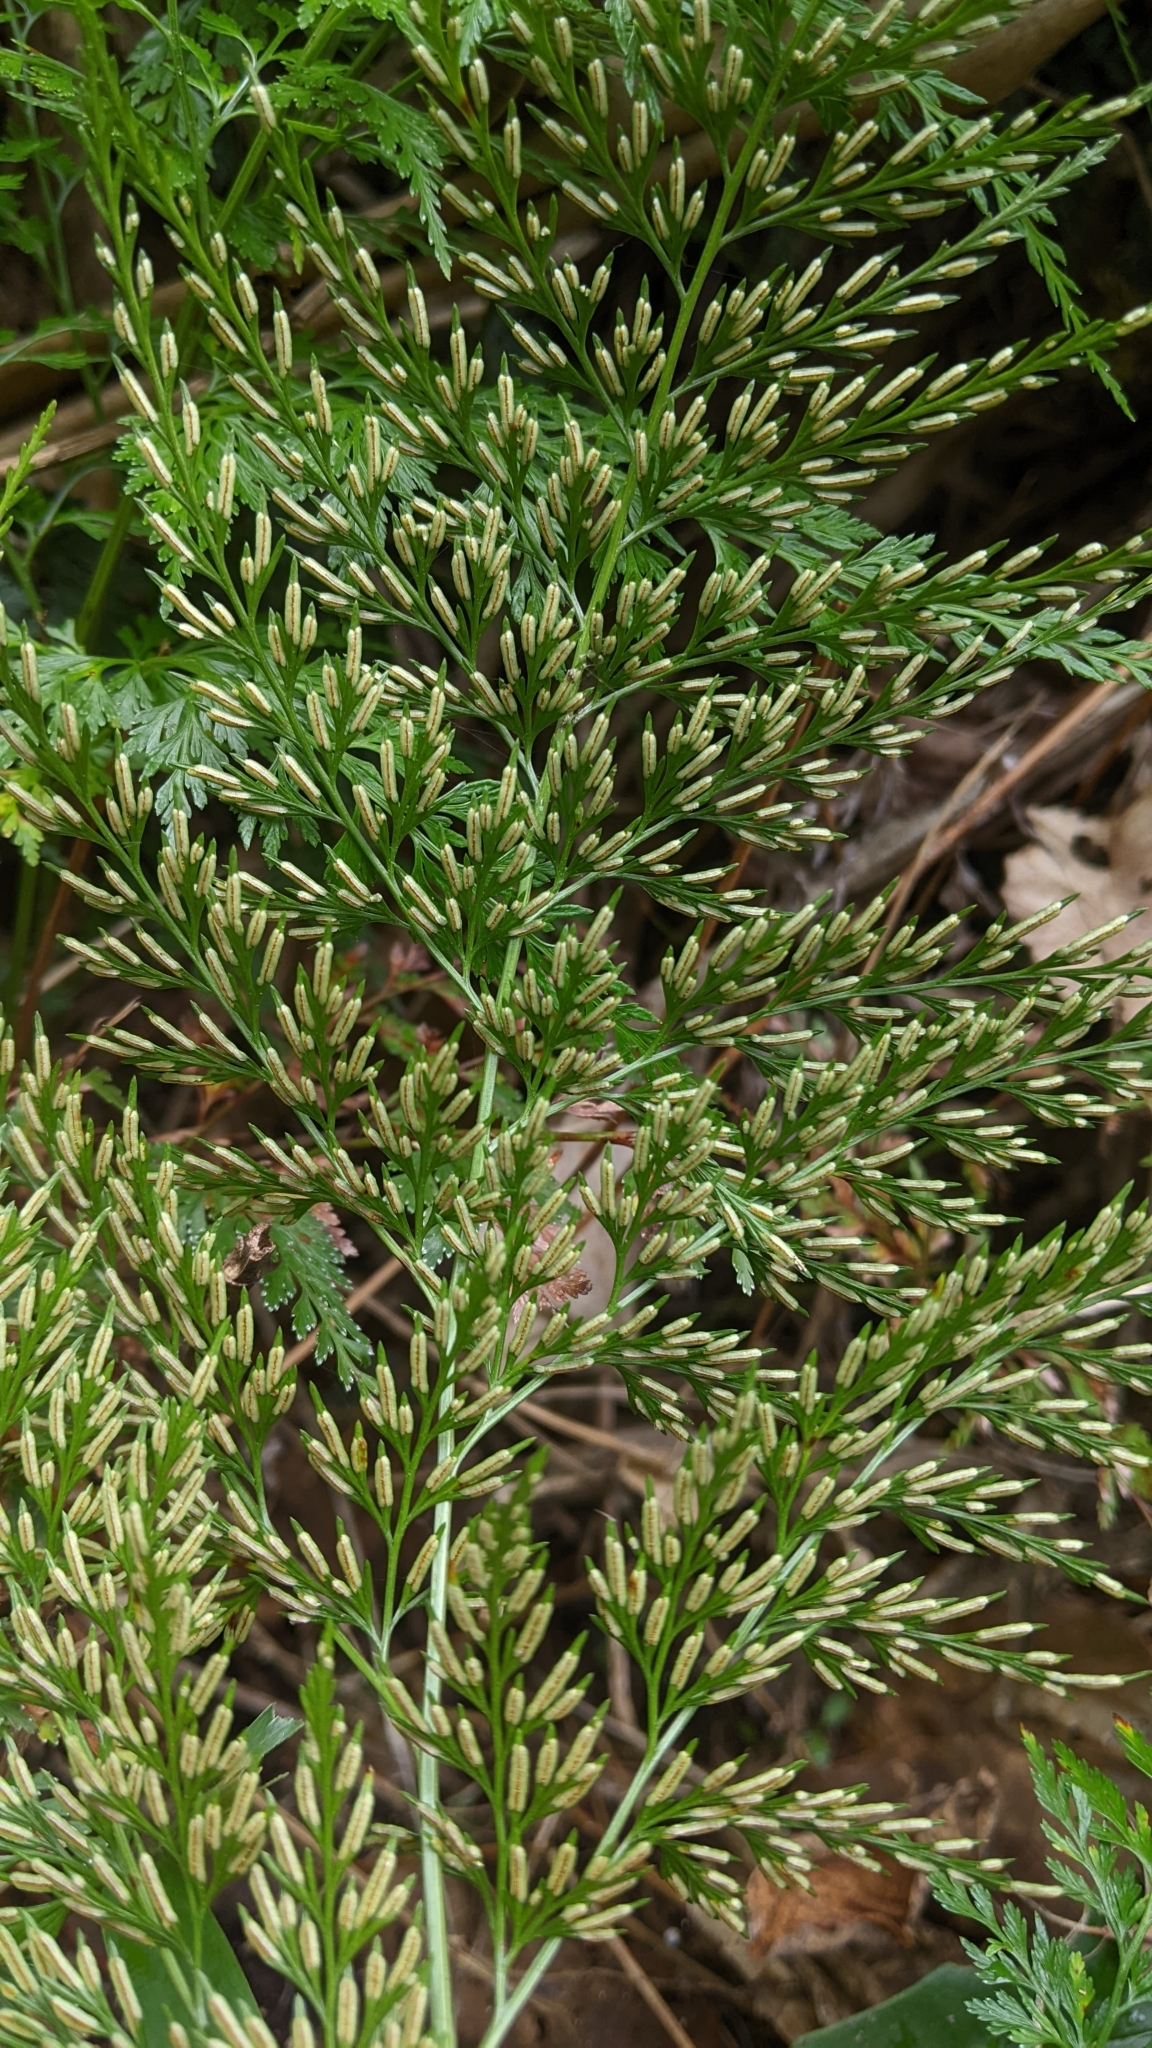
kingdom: Plantae
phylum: Tracheophyta
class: Polypodiopsida
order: Polypodiales
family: Pteridaceae
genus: Onychium
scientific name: Onychium japonicum
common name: Carrot fern
